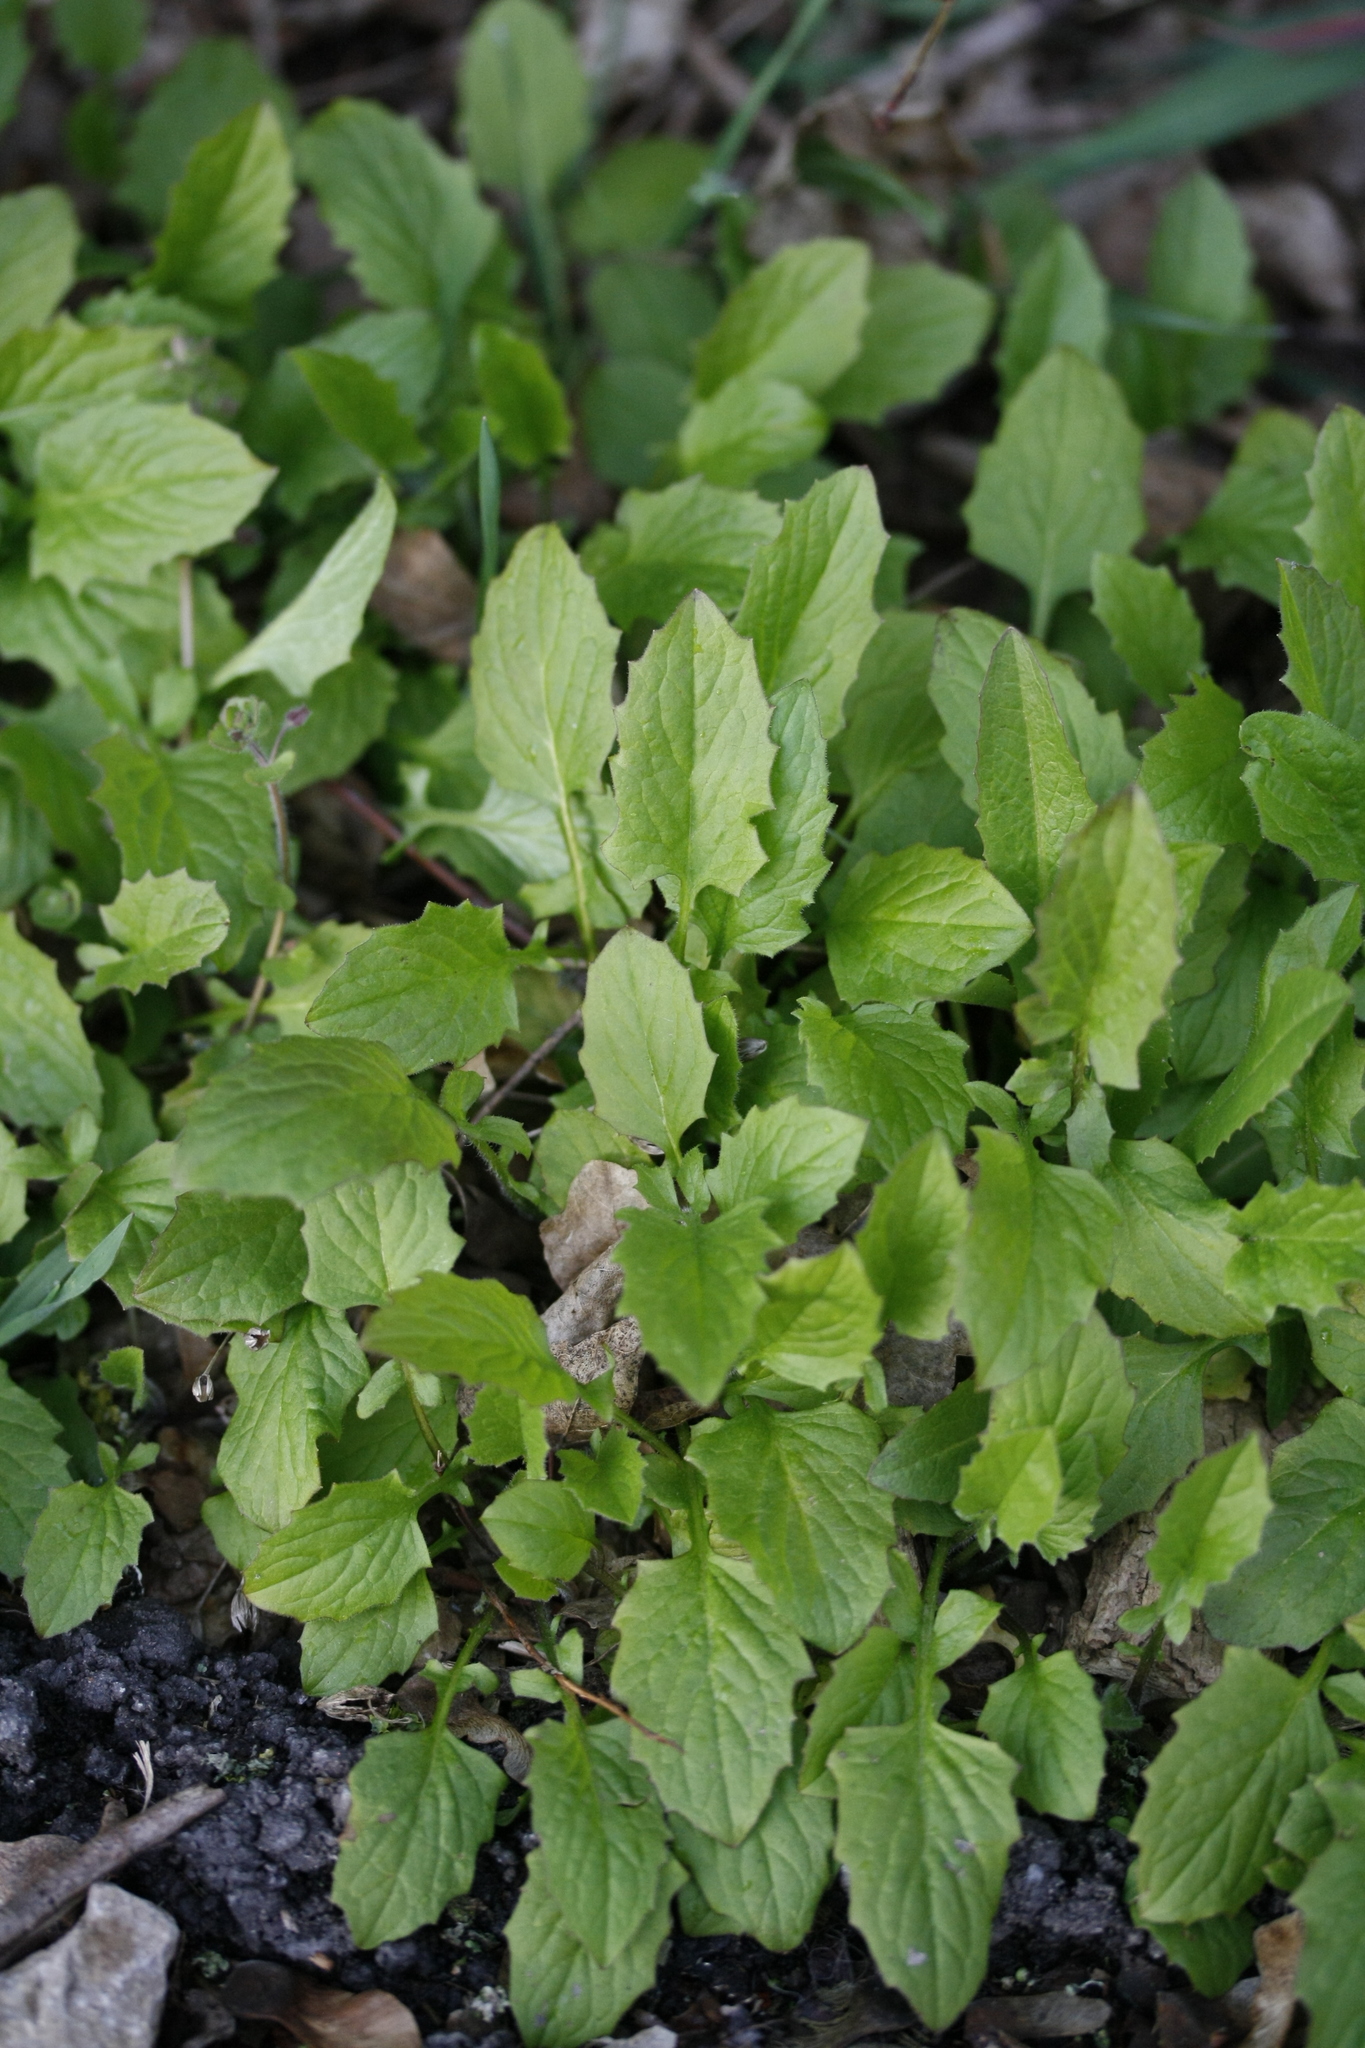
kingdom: Plantae
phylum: Tracheophyta
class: Magnoliopsida
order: Asterales
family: Asteraceae
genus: Lapsana
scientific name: Lapsana communis
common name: Nipplewort
